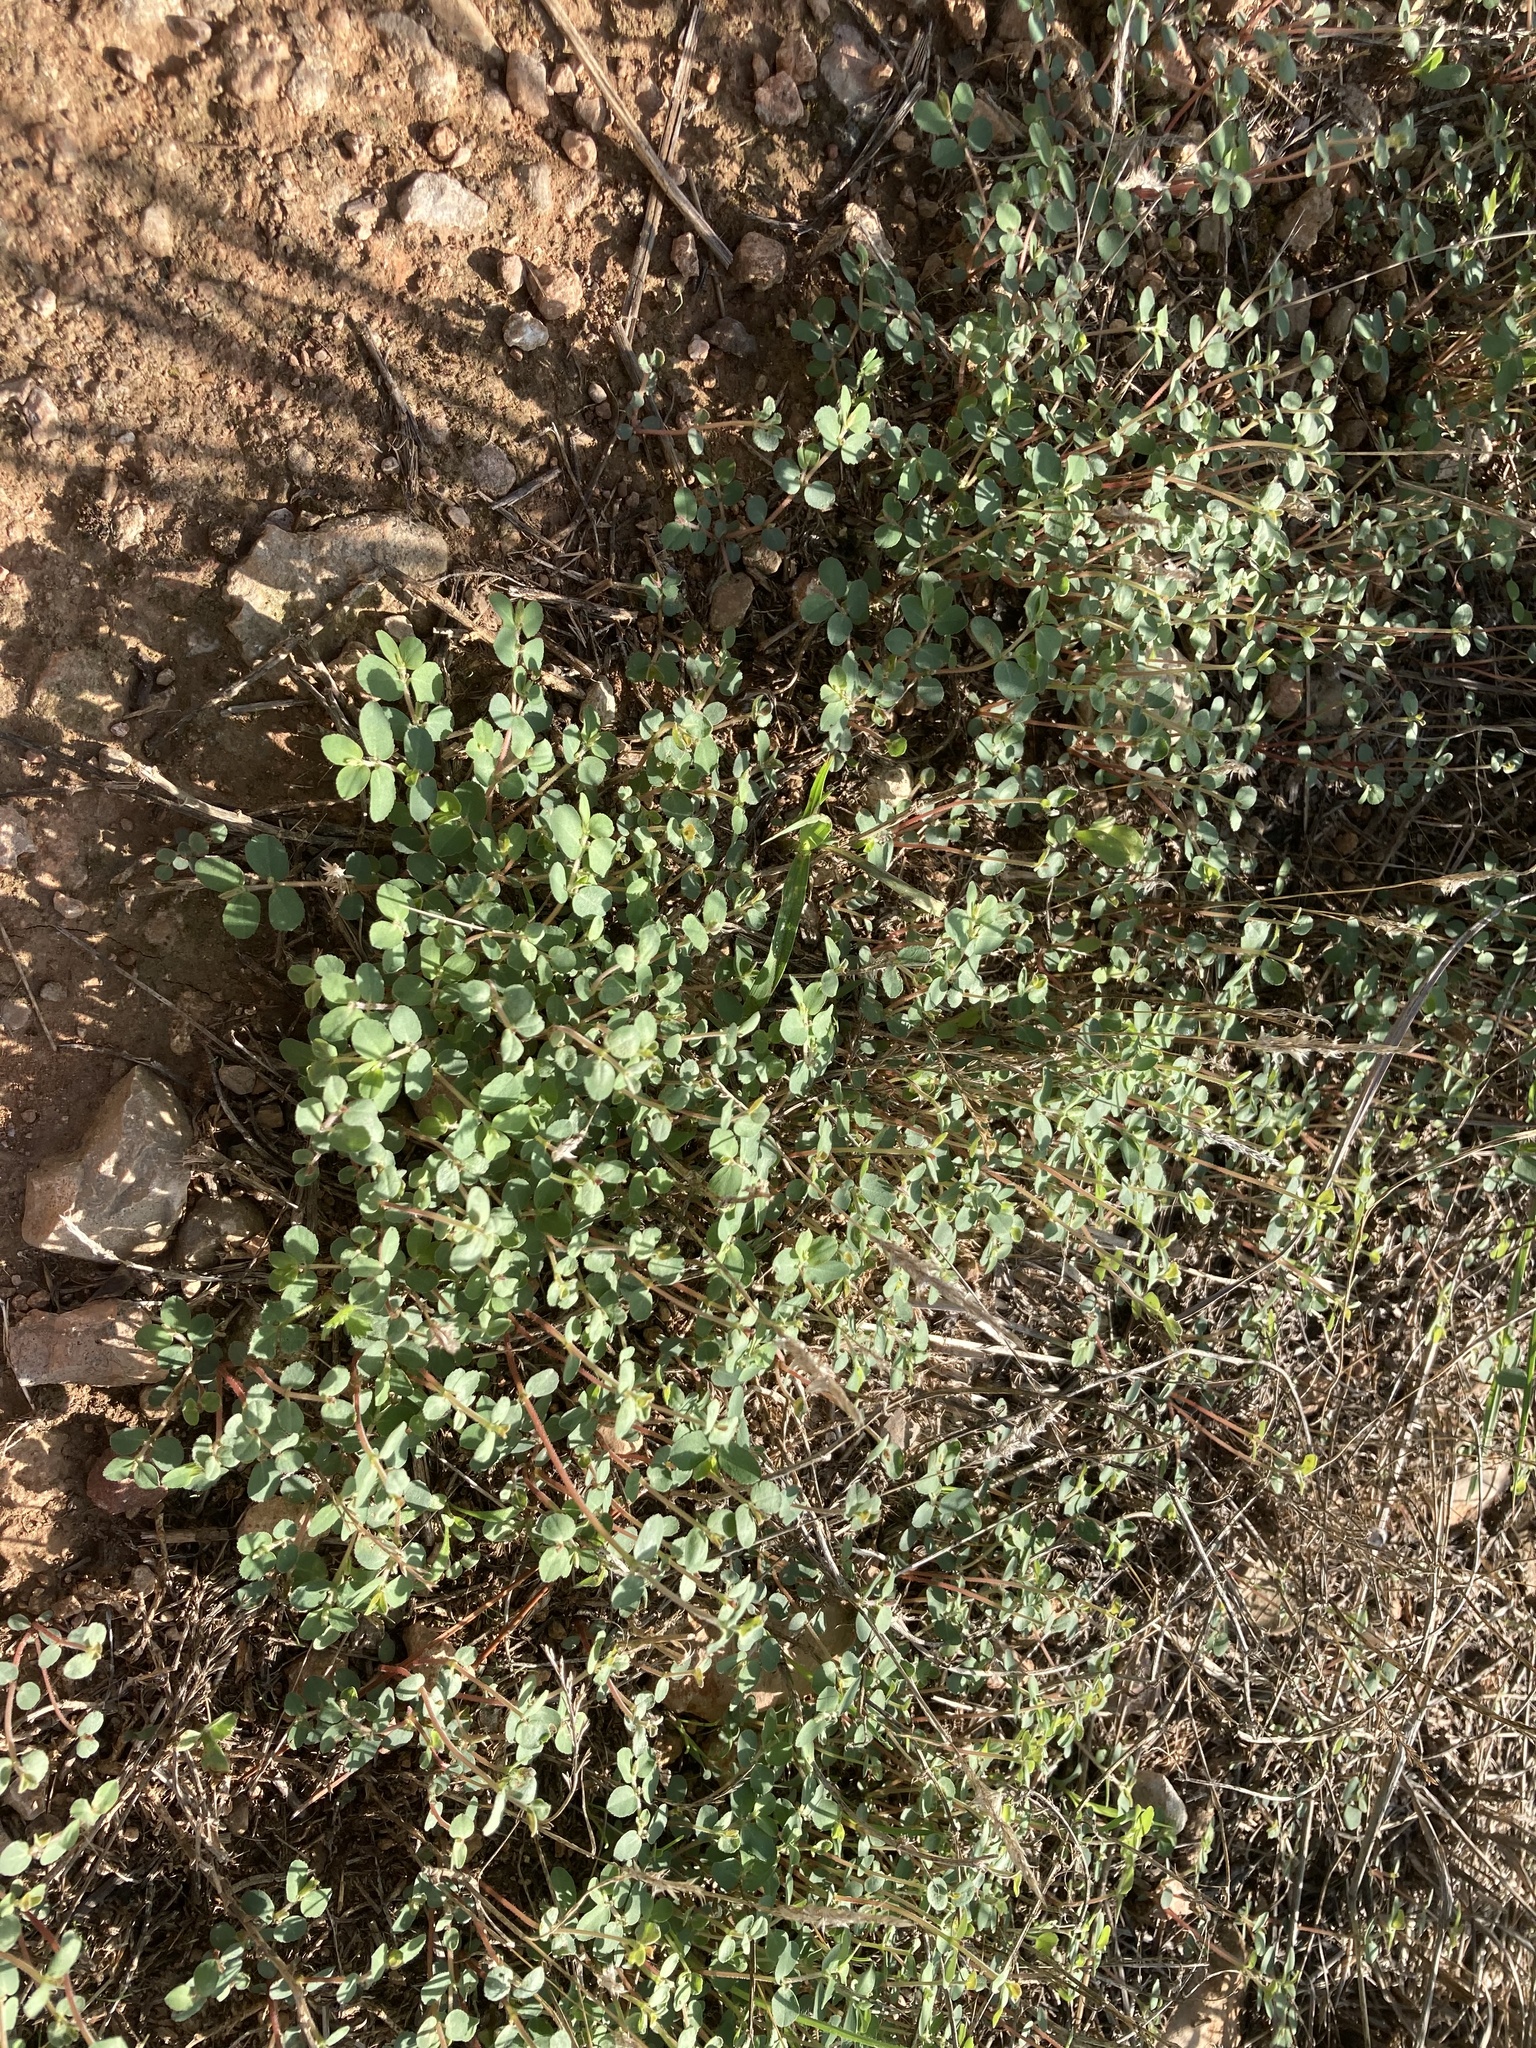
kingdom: Plantae
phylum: Tracheophyta
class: Magnoliopsida
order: Malpighiales
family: Euphorbiaceae
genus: Euphorbia
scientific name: Euphorbia prostrata
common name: Prostrate sandmat
